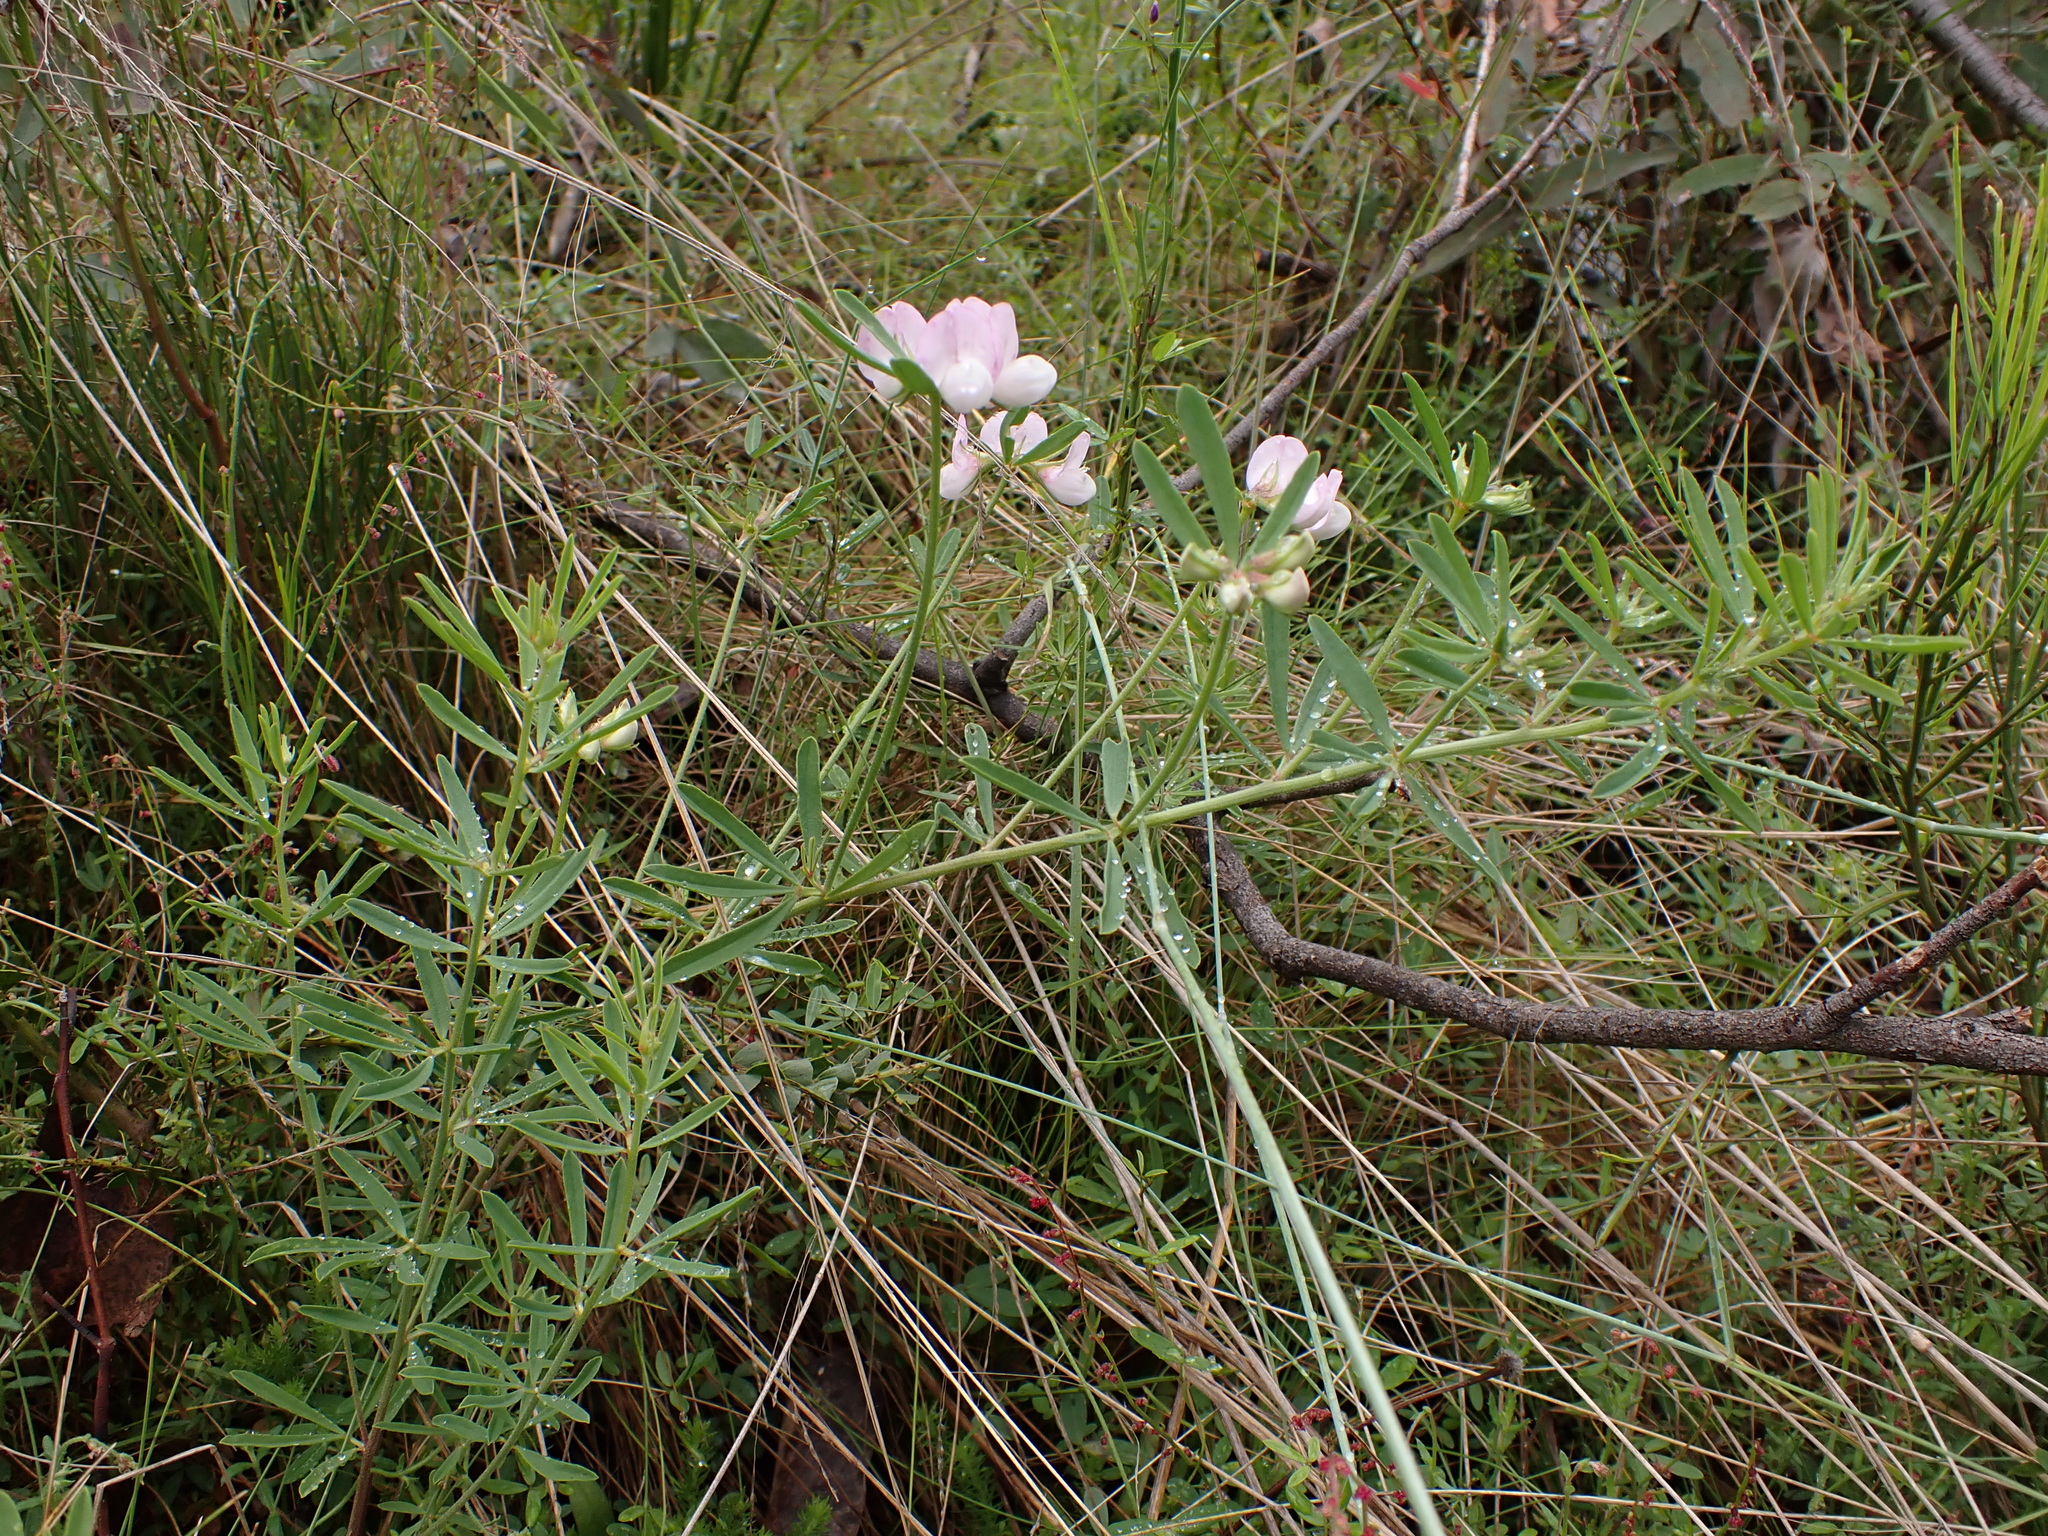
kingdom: Plantae
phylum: Tracheophyta
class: Magnoliopsida
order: Fabales
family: Fabaceae
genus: Lotus
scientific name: Lotus australis
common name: Australian trefoil
